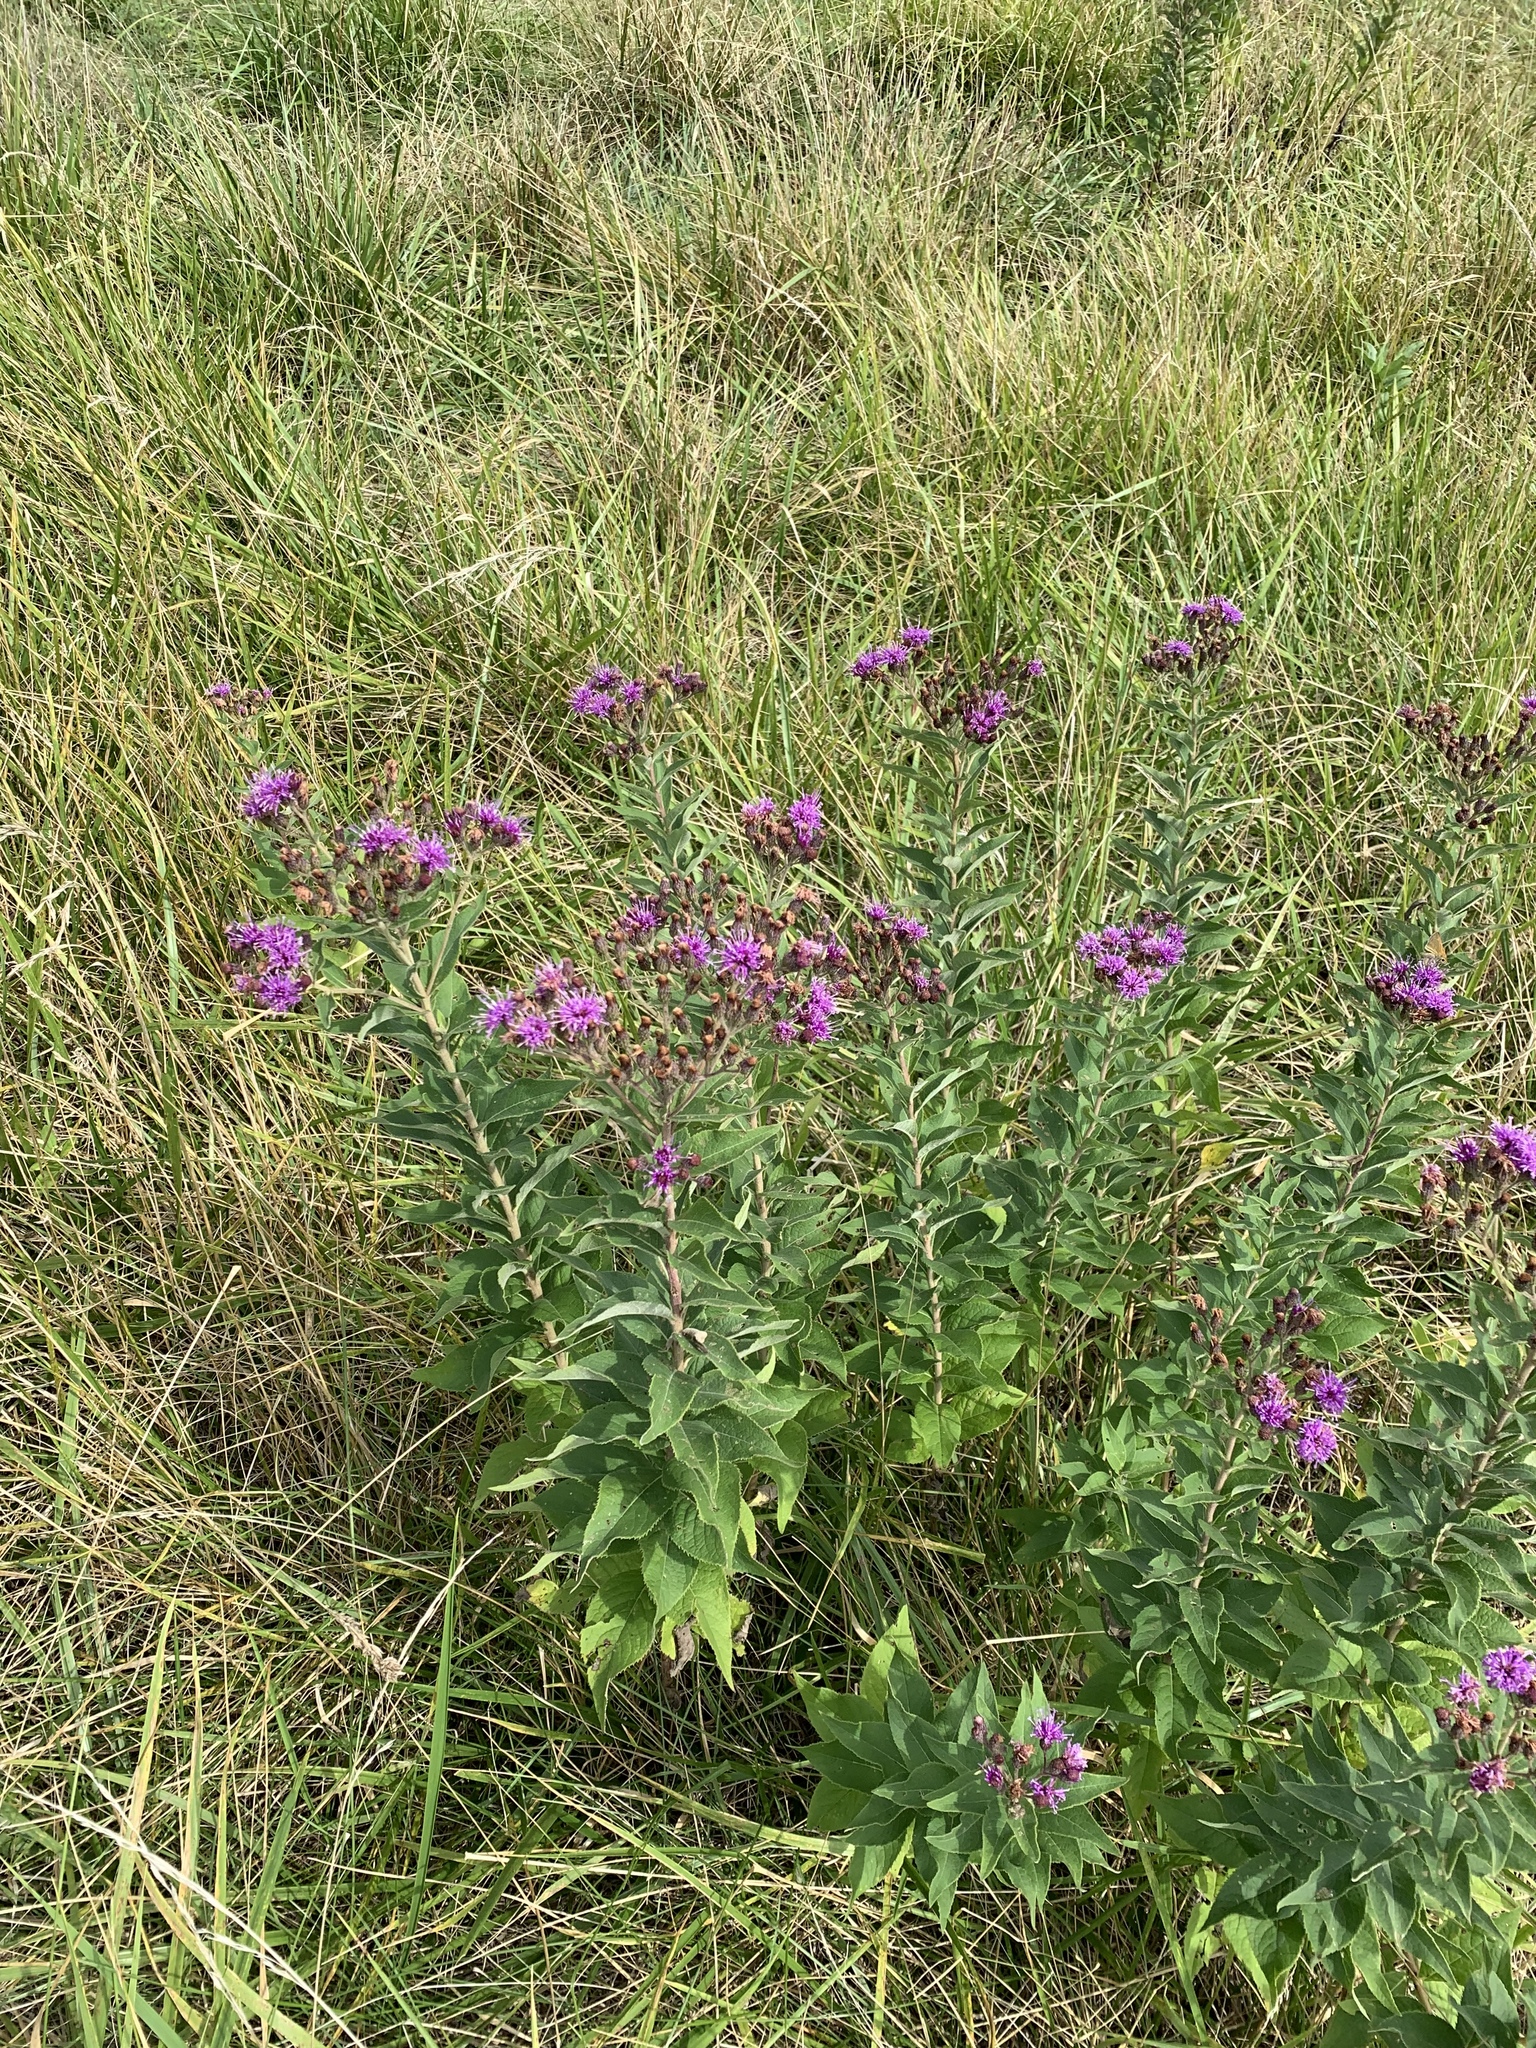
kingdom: Plantae
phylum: Tracheophyta
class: Magnoliopsida
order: Asterales
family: Asteraceae
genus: Vernonia
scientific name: Vernonia baldwinii
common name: Western ironweed
